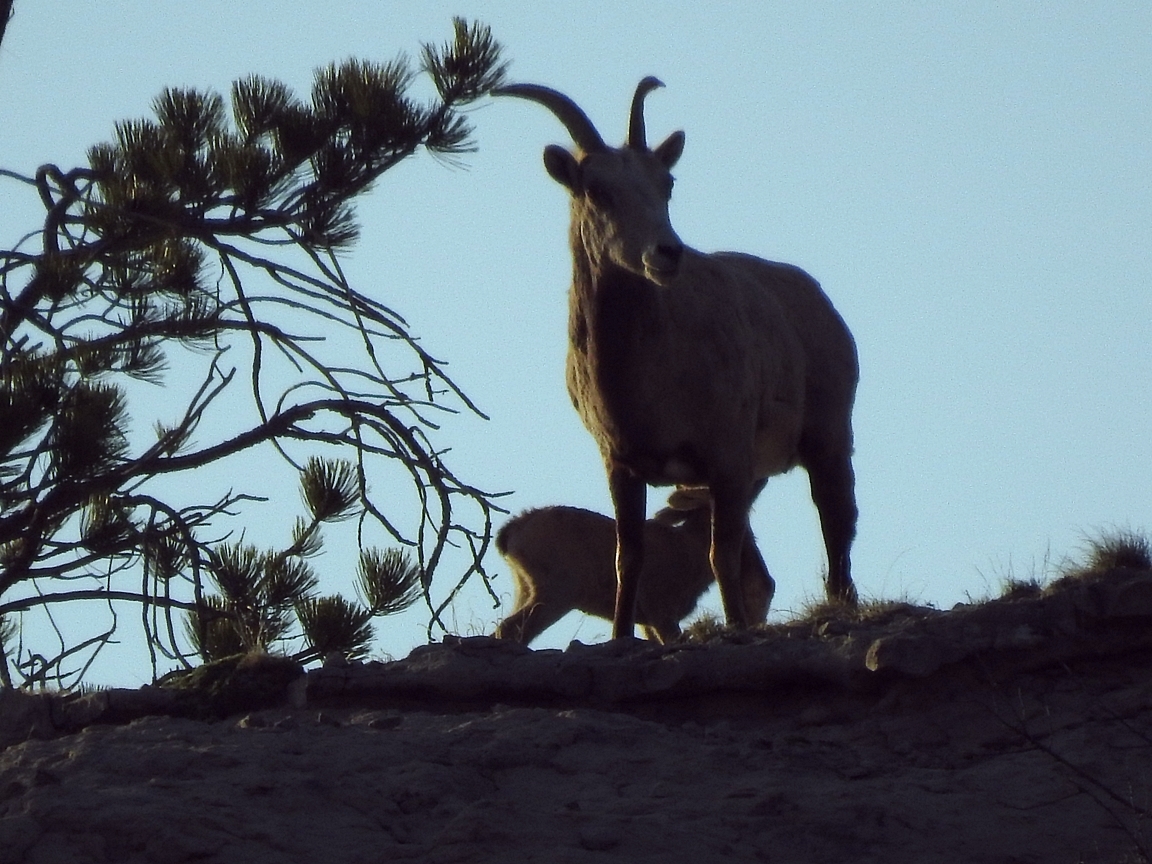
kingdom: Animalia
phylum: Chordata
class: Mammalia
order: Artiodactyla
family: Bovidae
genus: Ovis
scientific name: Ovis canadensis
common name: Bighorn sheep
